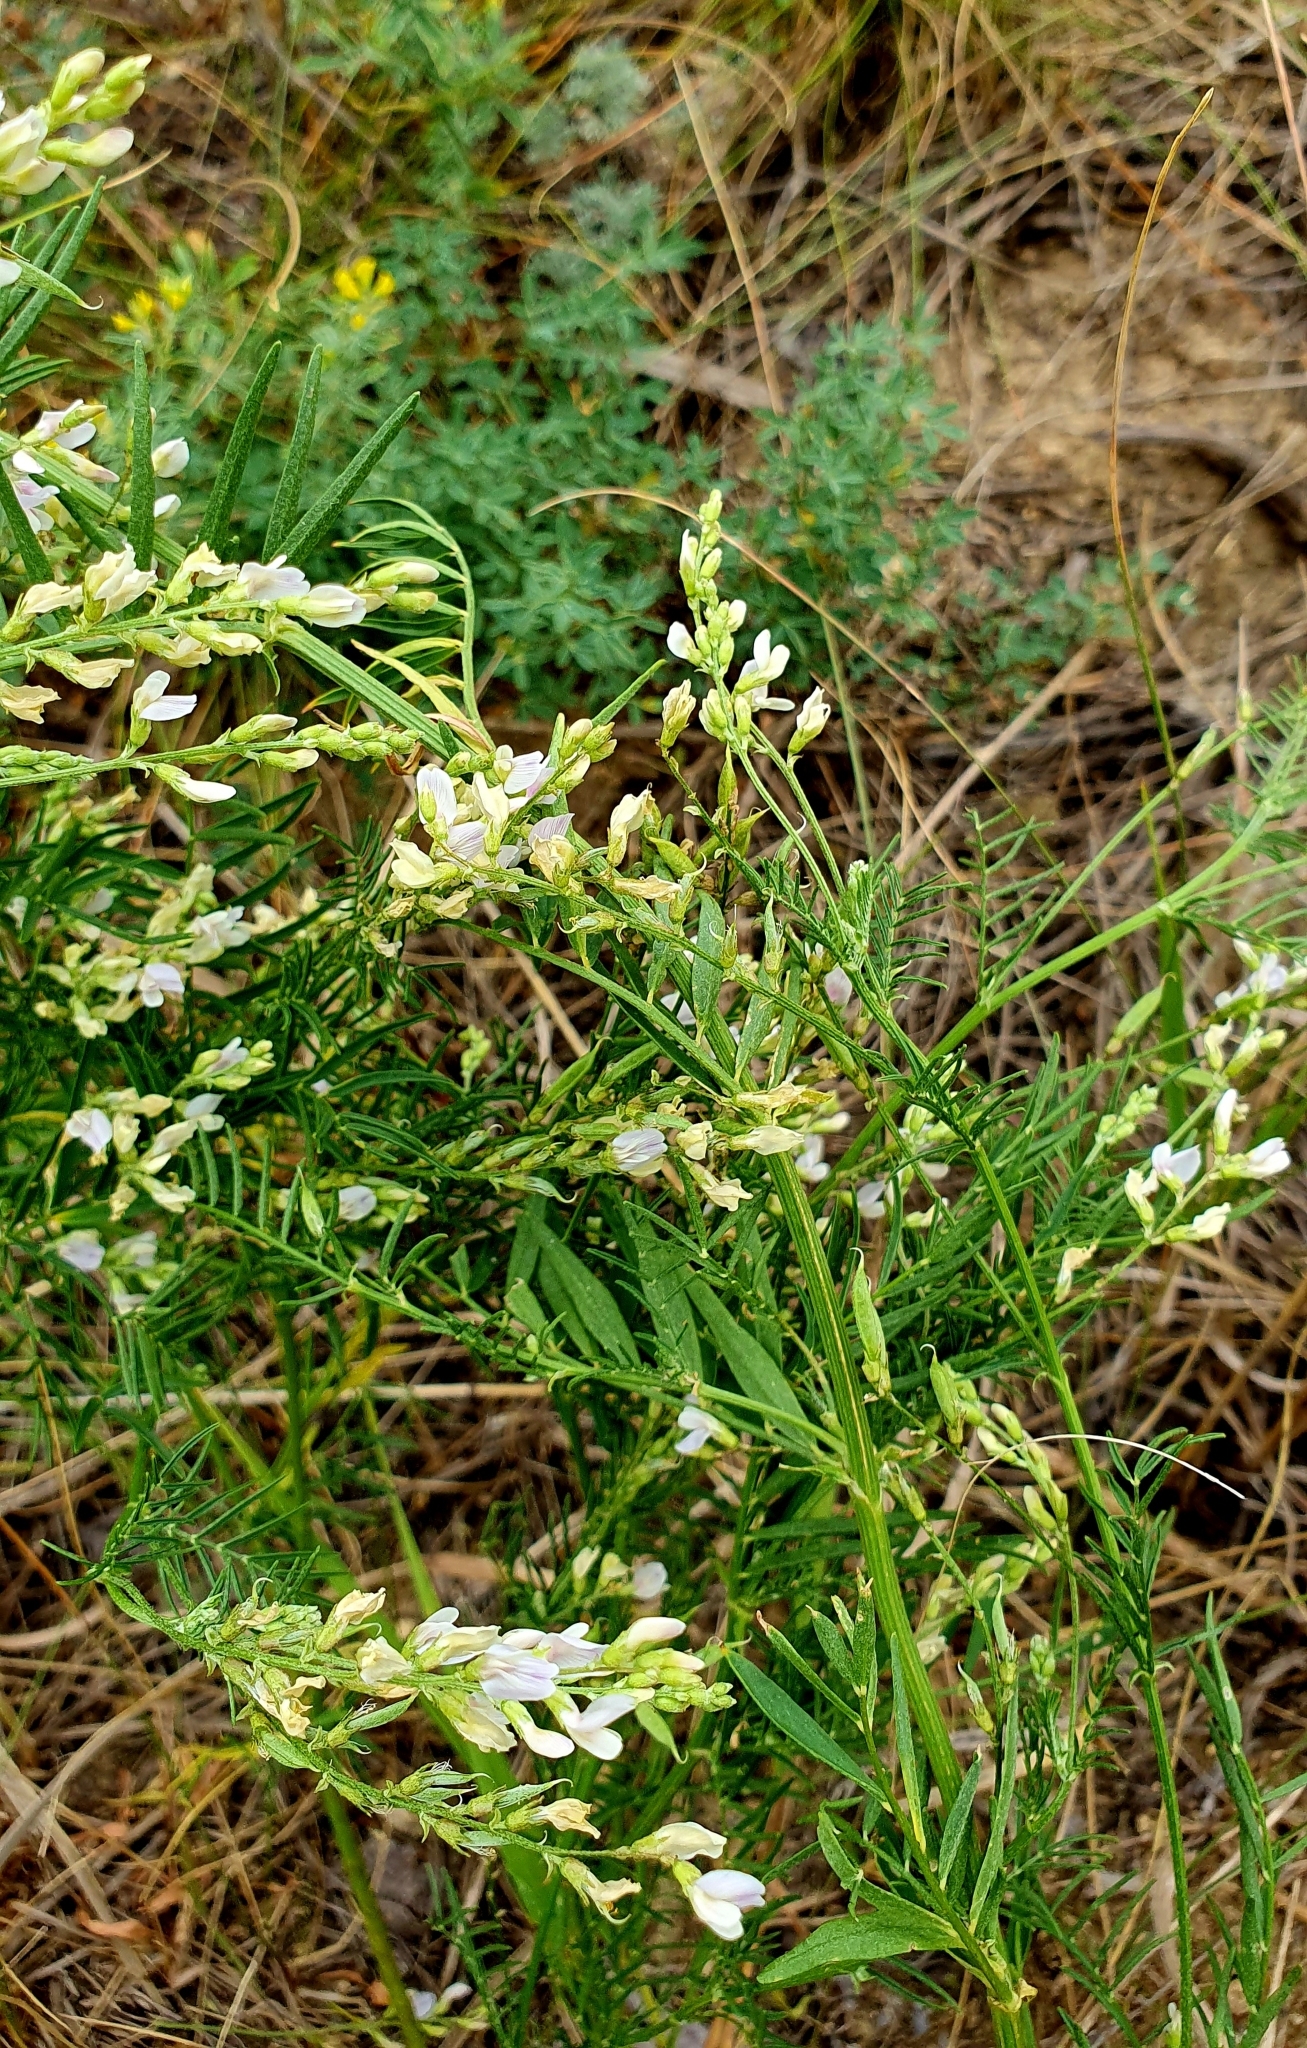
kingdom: Plantae
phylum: Tracheophyta
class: Magnoliopsida
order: Fabales
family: Fabaceae
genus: Astragalus
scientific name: Astragalus sulcatus
